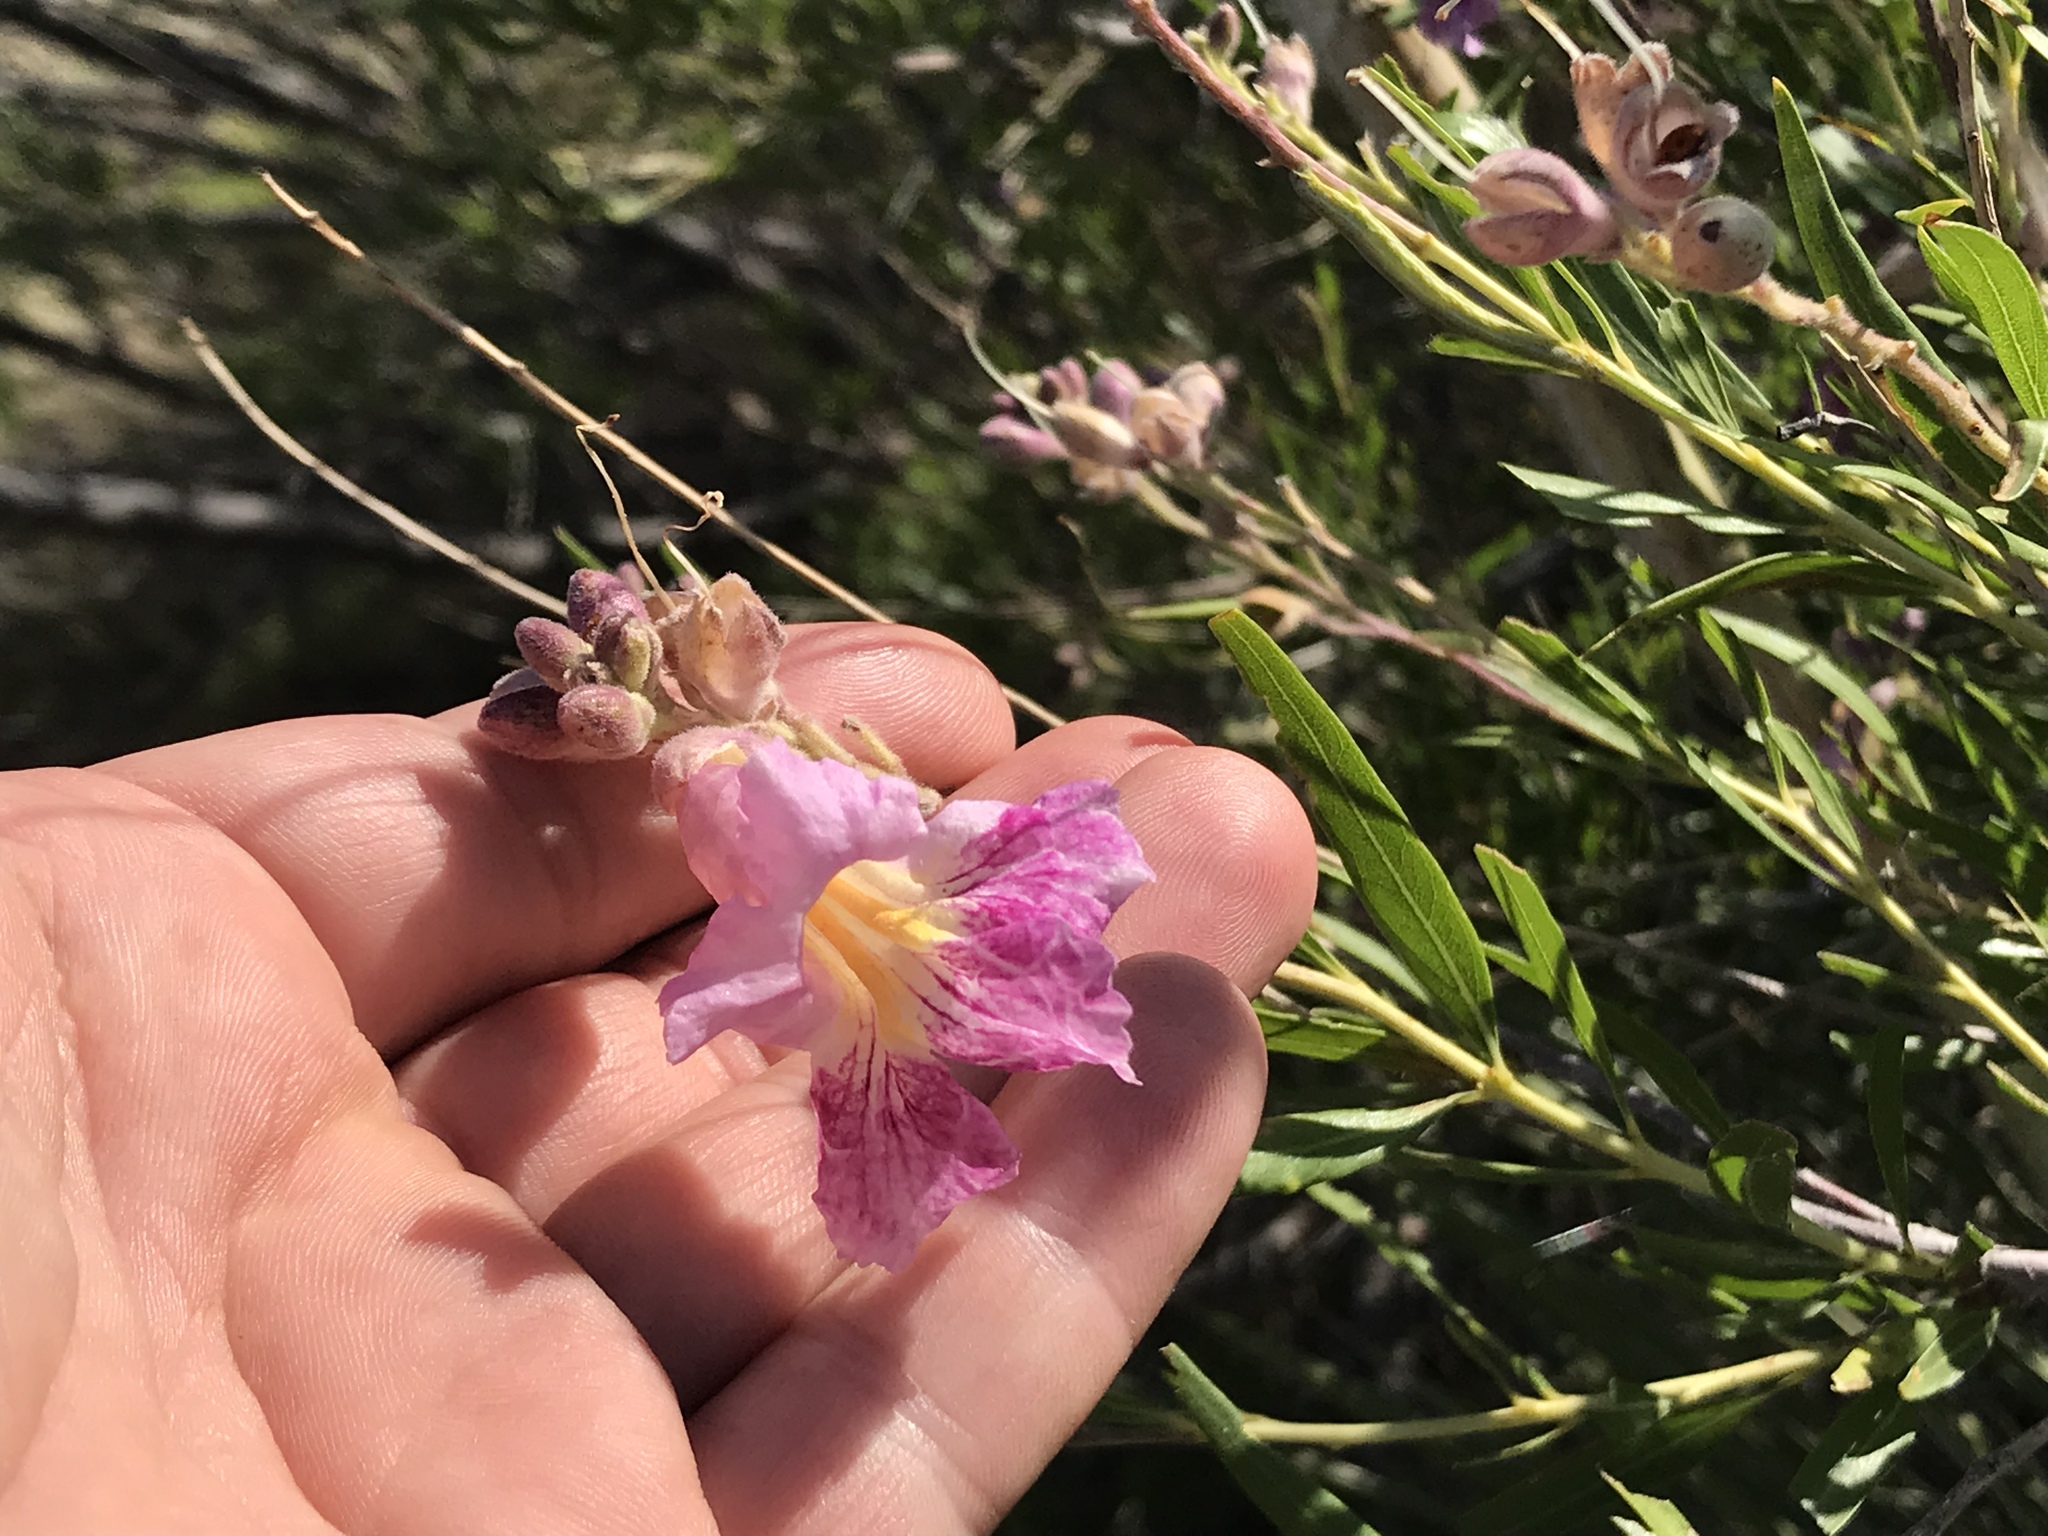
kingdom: Plantae
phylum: Tracheophyta
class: Magnoliopsida
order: Lamiales
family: Bignoniaceae
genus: Chilopsis
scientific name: Chilopsis linearis
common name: Desert-willow
